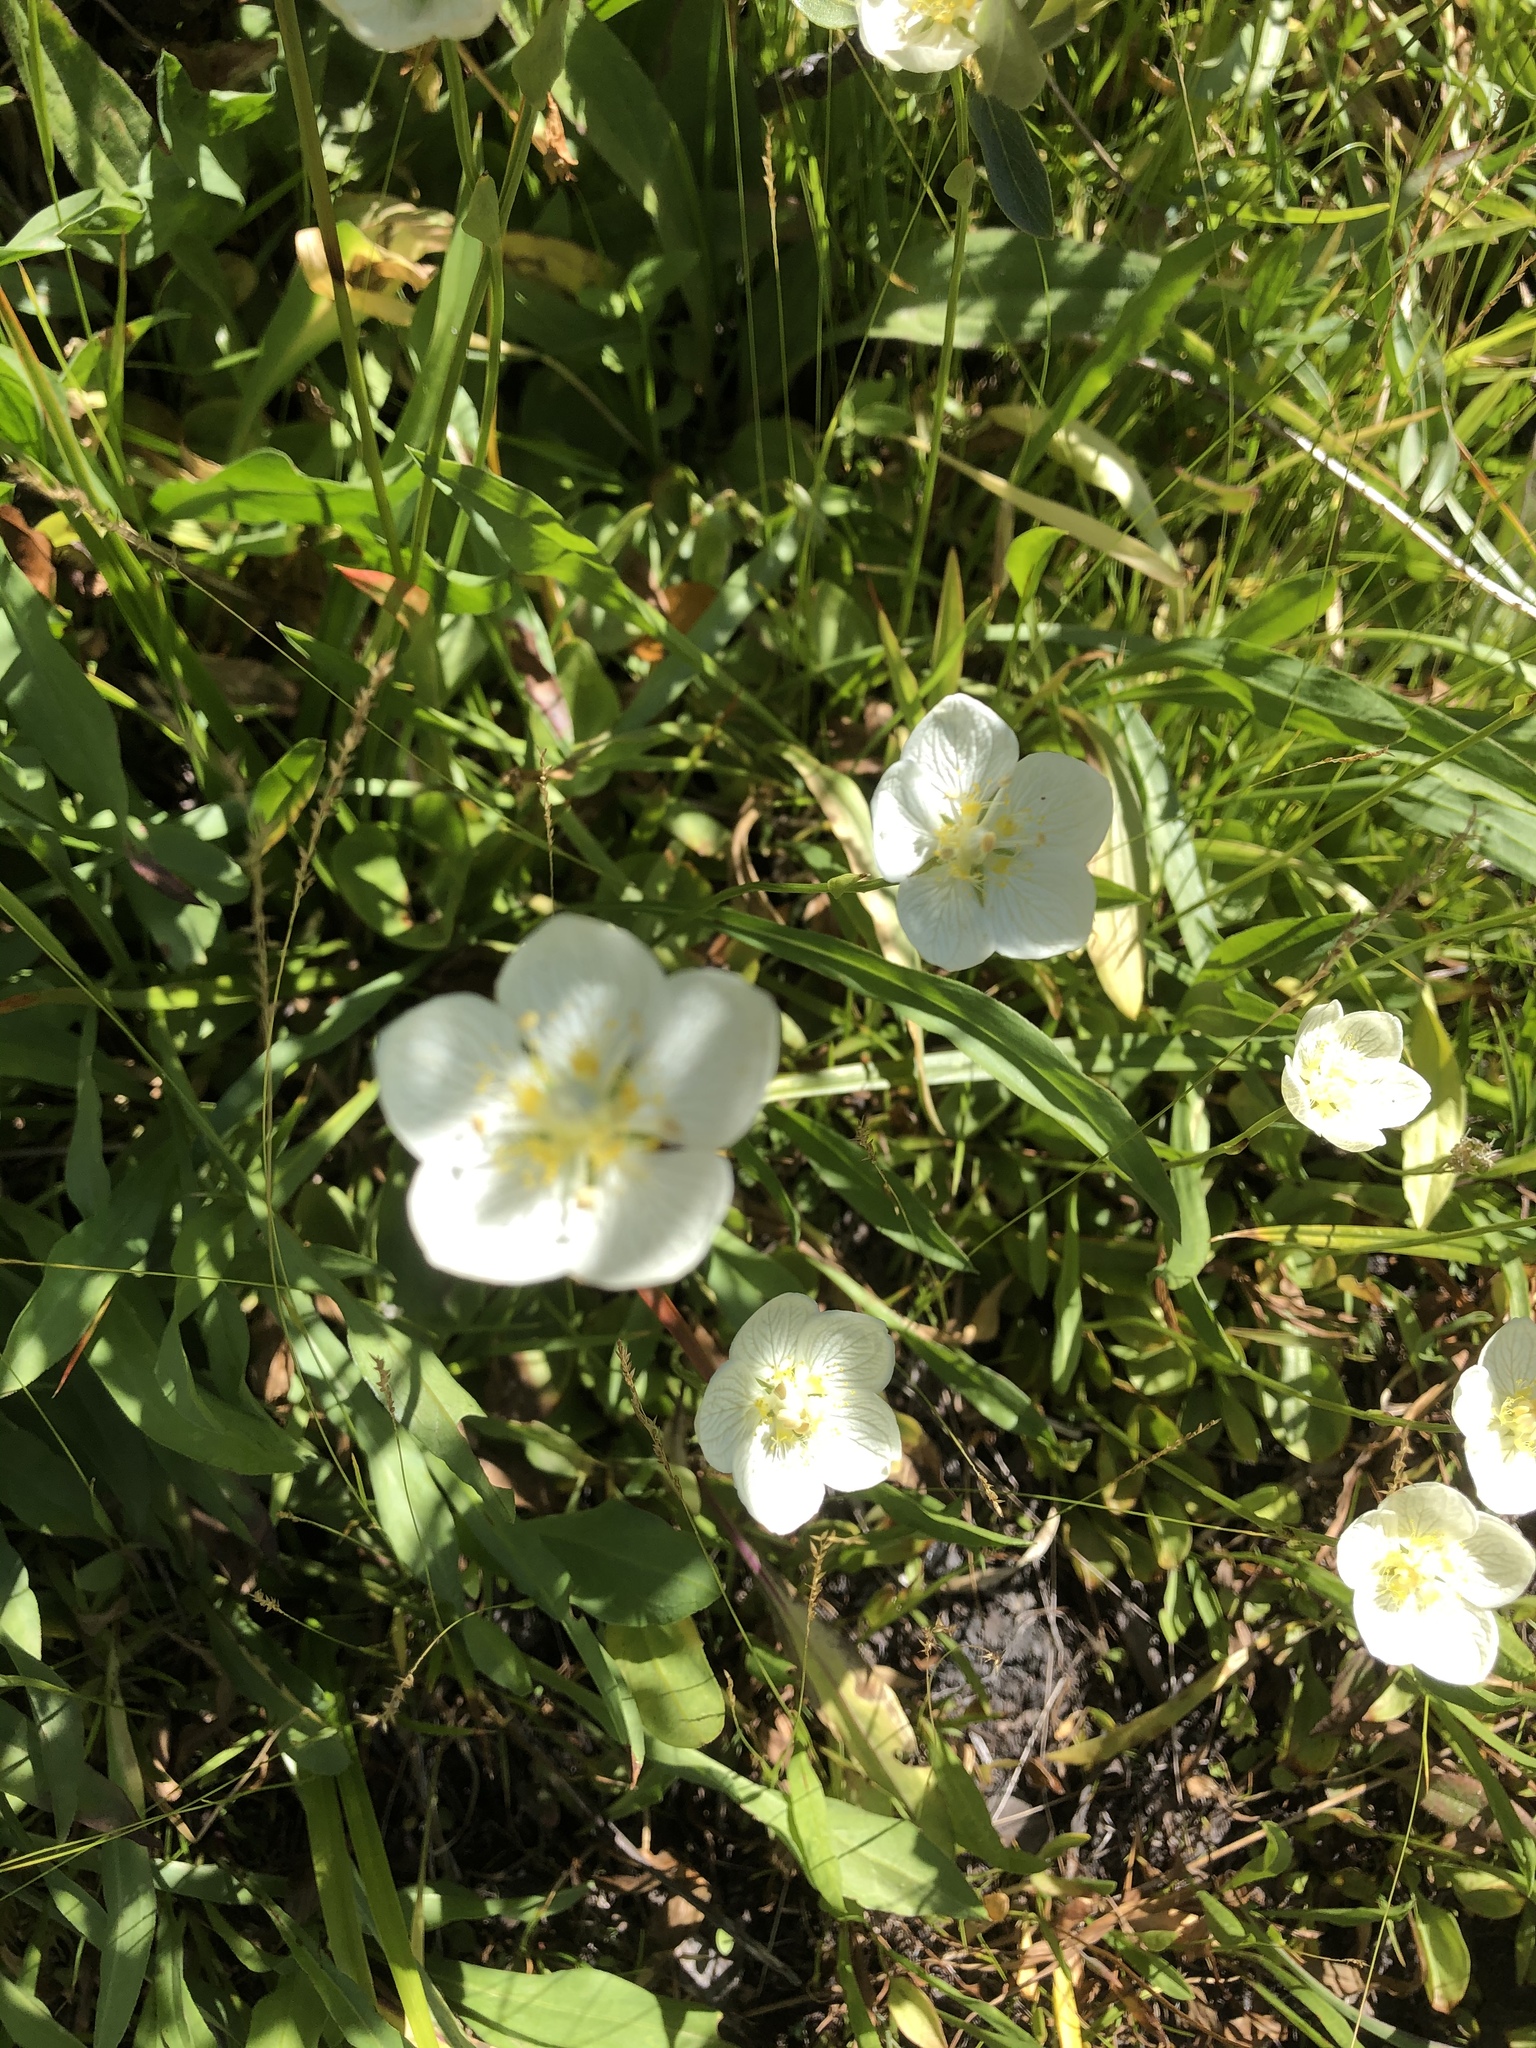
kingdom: Plantae
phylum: Tracheophyta
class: Magnoliopsida
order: Celastrales
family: Parnassiaceae
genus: Parnassia
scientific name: Parnassia palustris
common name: Grass-of-parnassus
